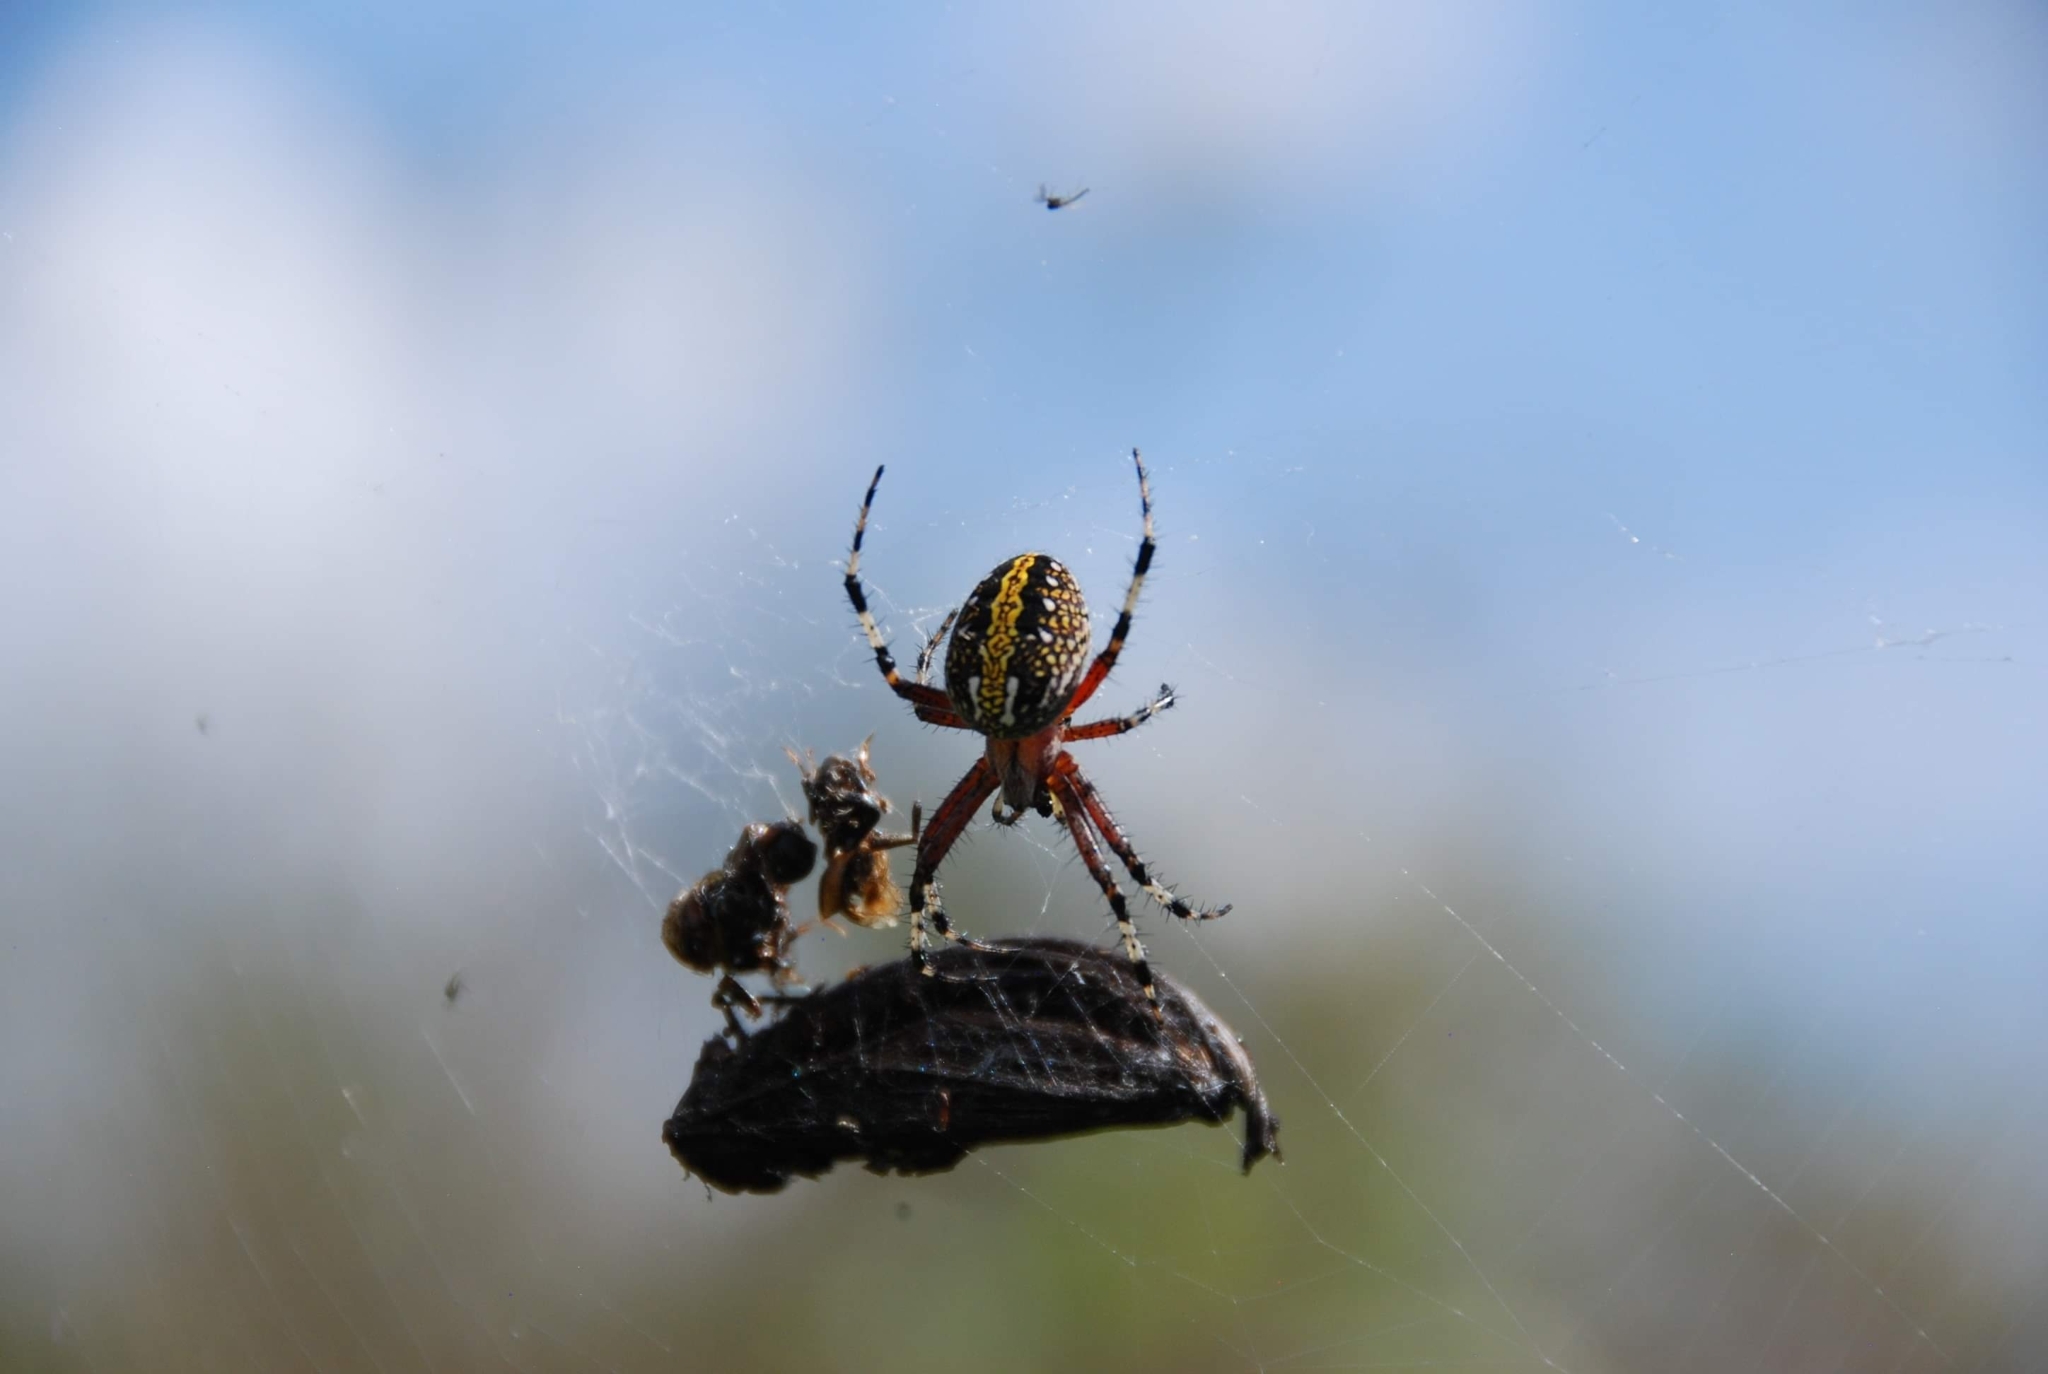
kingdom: Animalia
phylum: Arthropoda
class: Arachnida
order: Araneae
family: Araneidae
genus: Neoscona
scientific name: Neoscona oaxacensis
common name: Orb weavers
